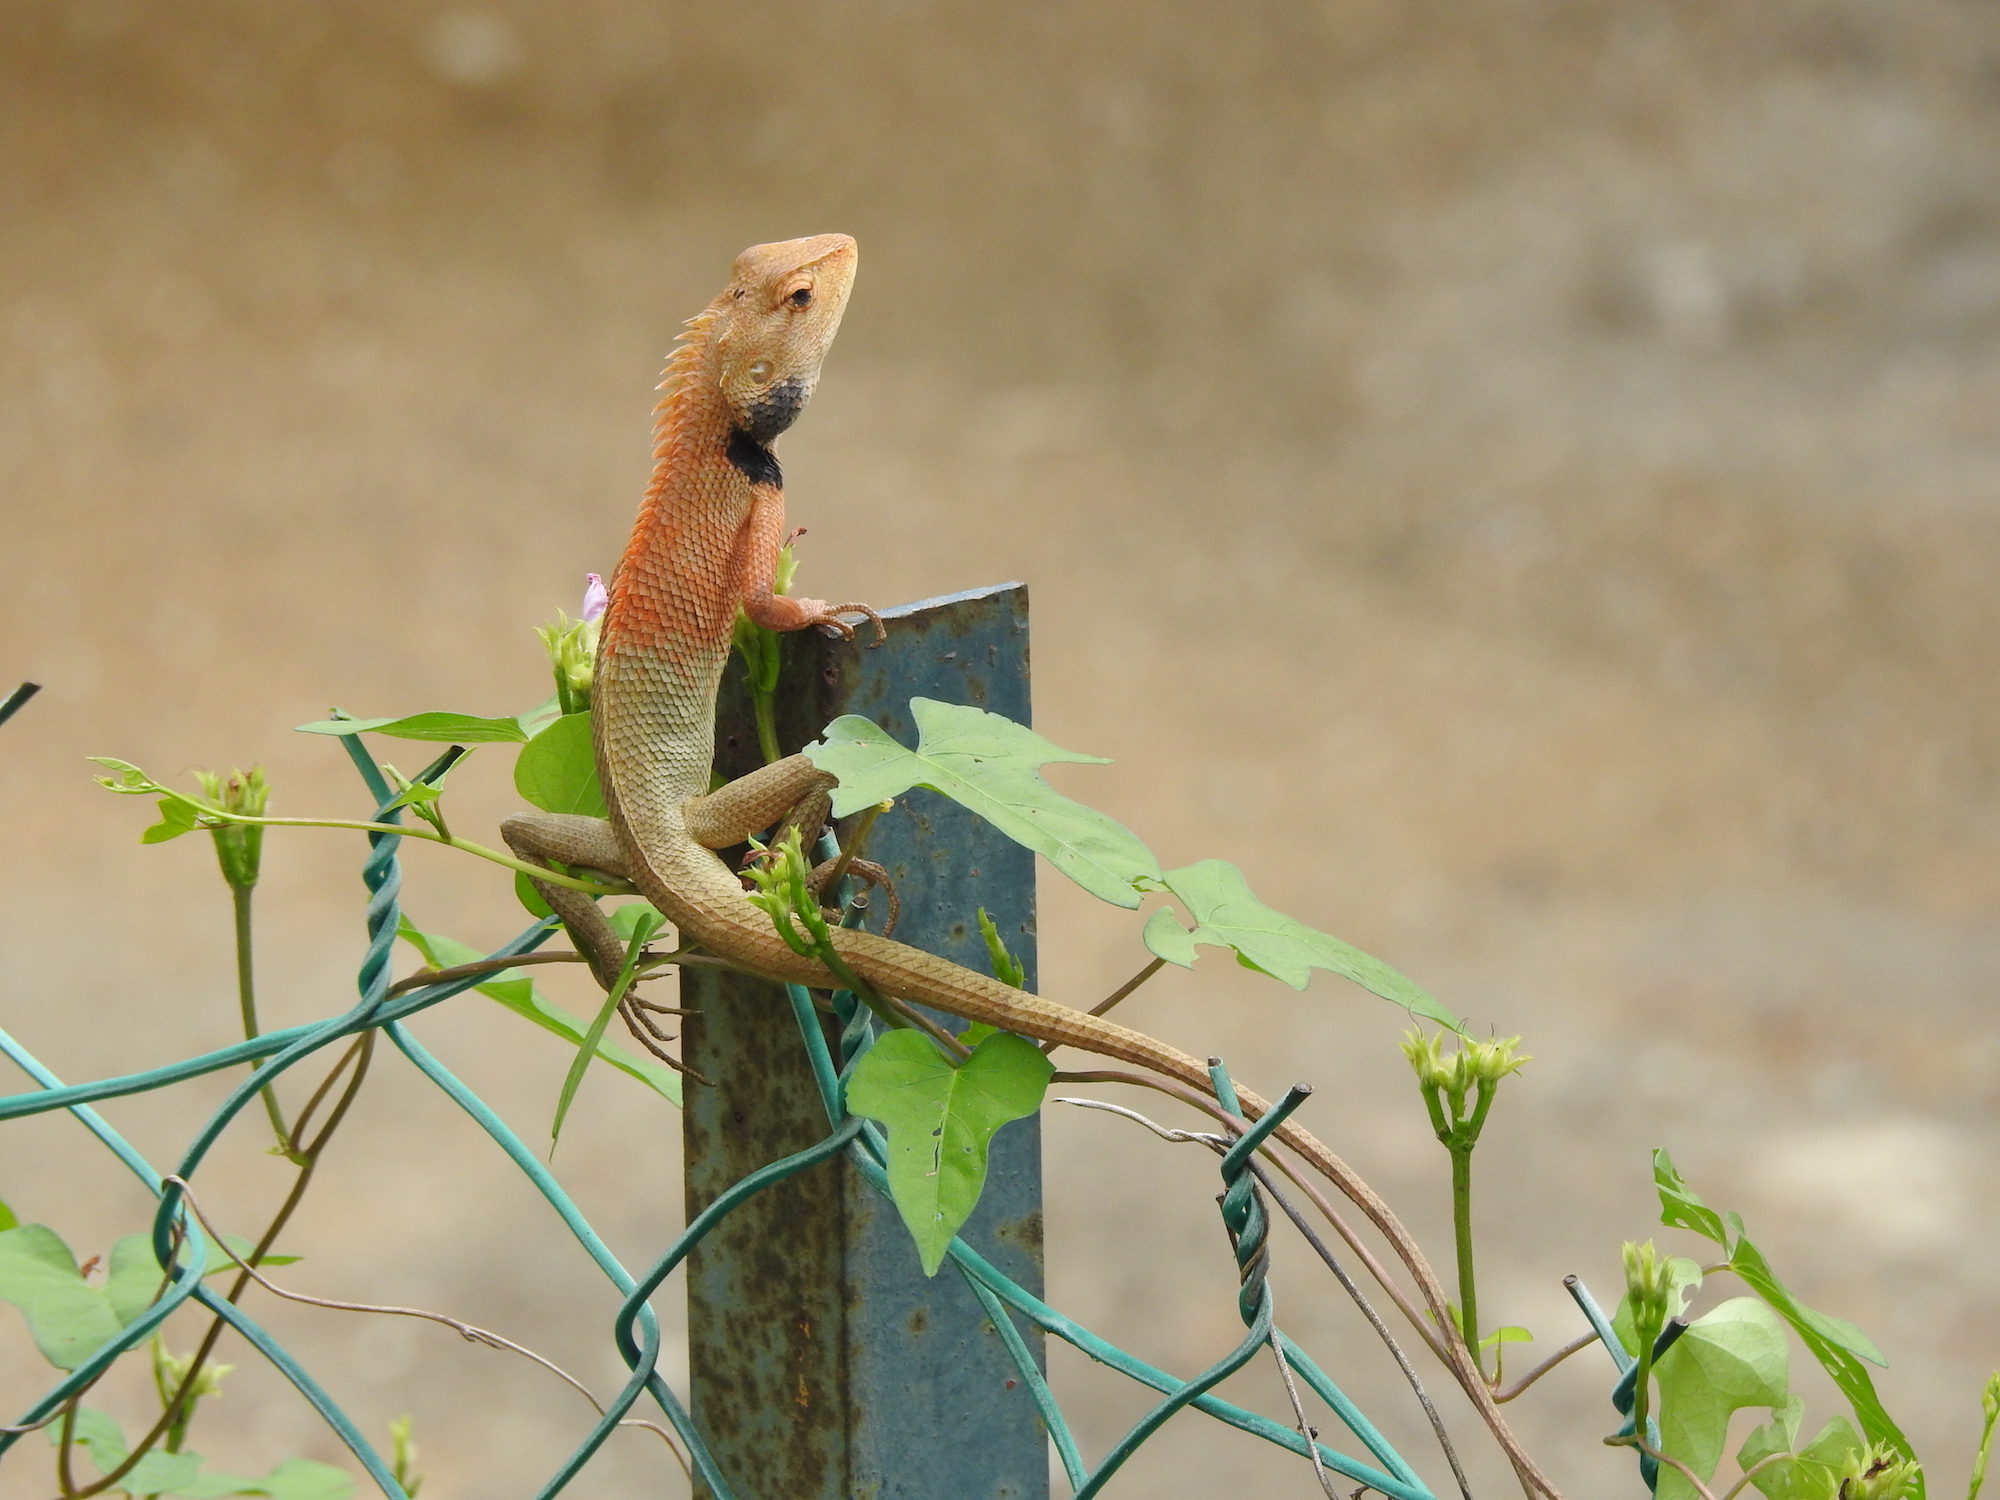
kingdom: Animalia
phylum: Chordata
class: Squamata
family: Agamidae
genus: Calotes
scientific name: Calotes versicolor
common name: Oriental garden lizard
